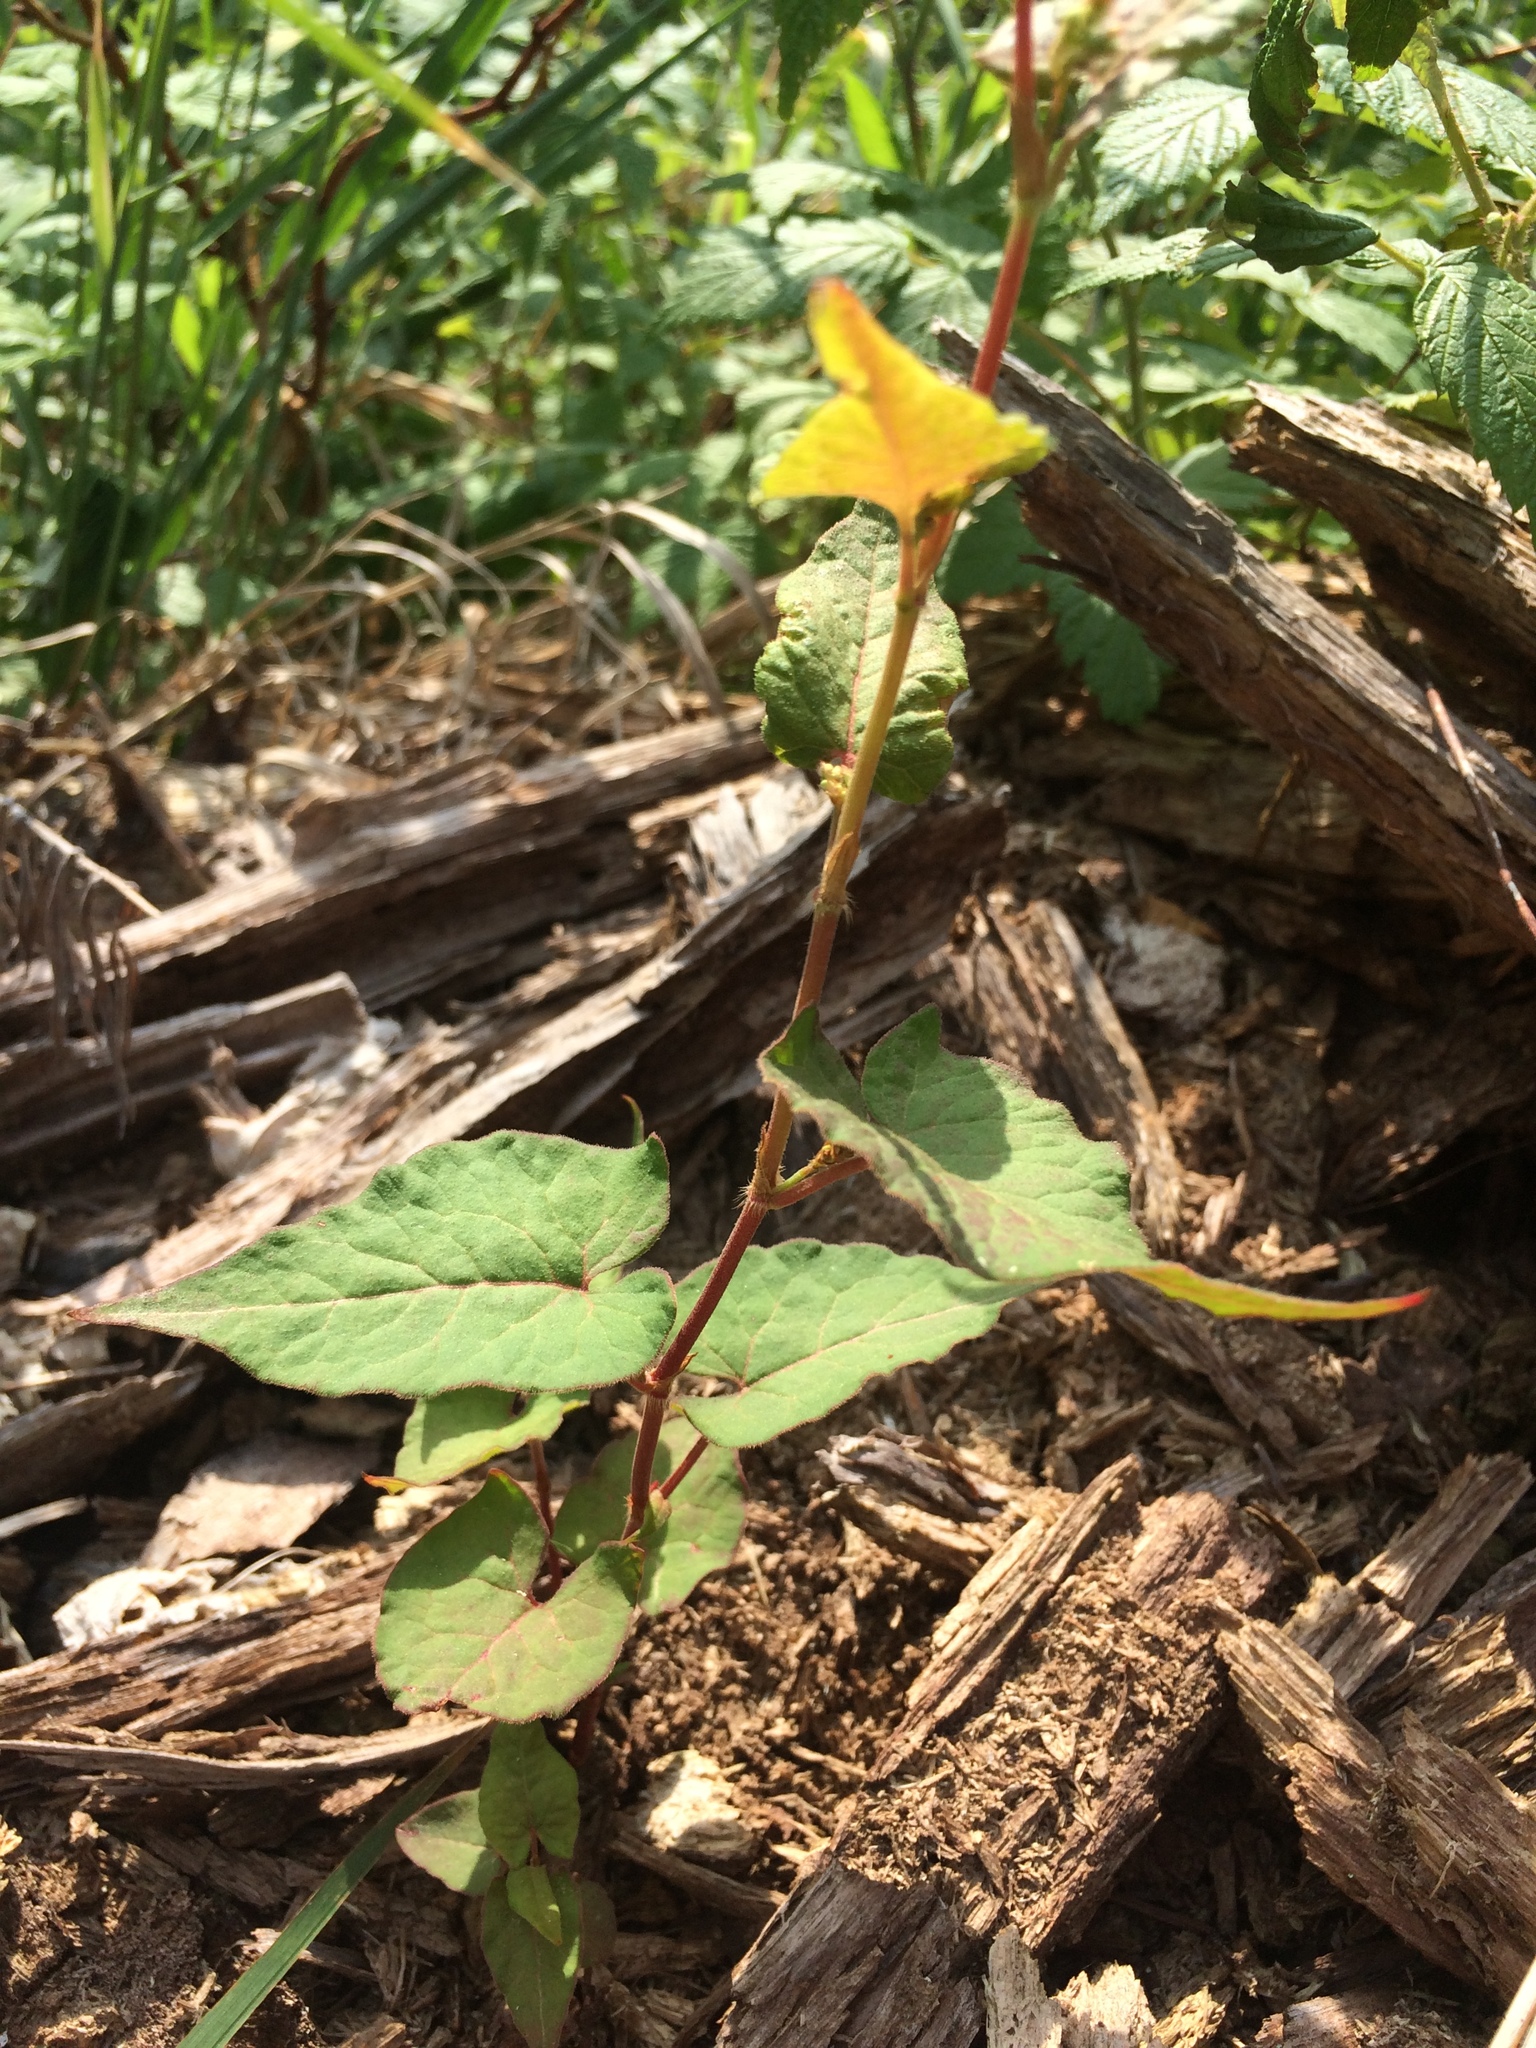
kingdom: Plantae
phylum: Tracheophyta
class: Magnoliopsida
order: Caryophyllales
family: Polygonaceae
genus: Parogonum
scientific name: Parogonum ciliinode
